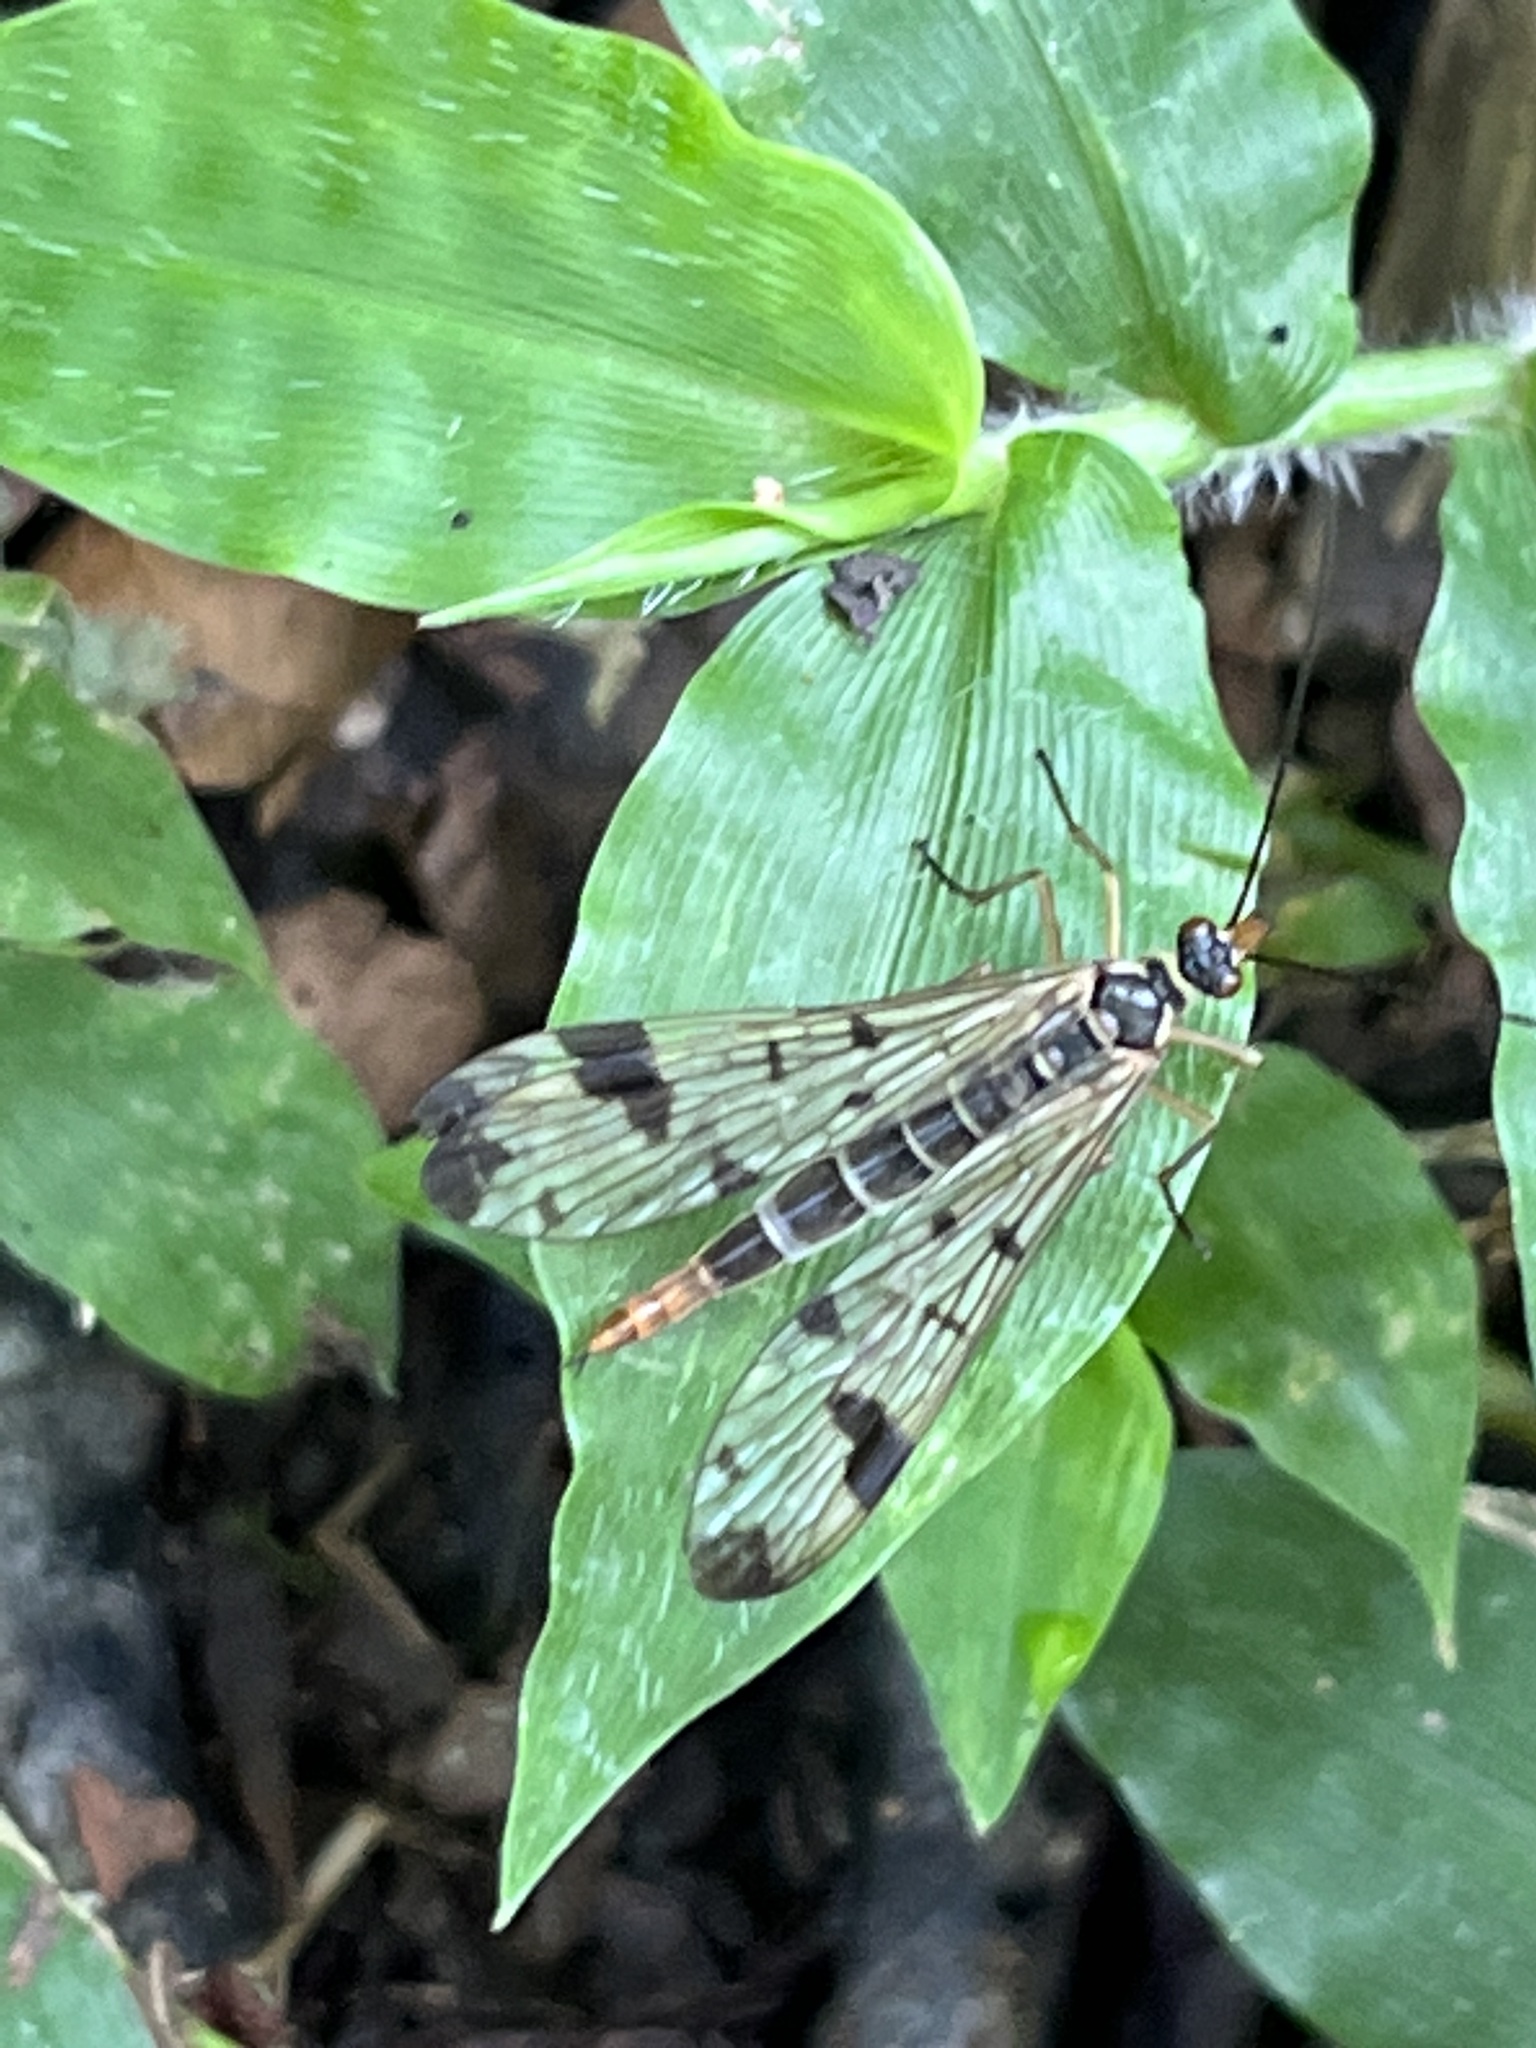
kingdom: Animalia
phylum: Arthropoda
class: Insecta
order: Mecoptera
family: Panorpidae
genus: Panorpa
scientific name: Panorpa connexa
